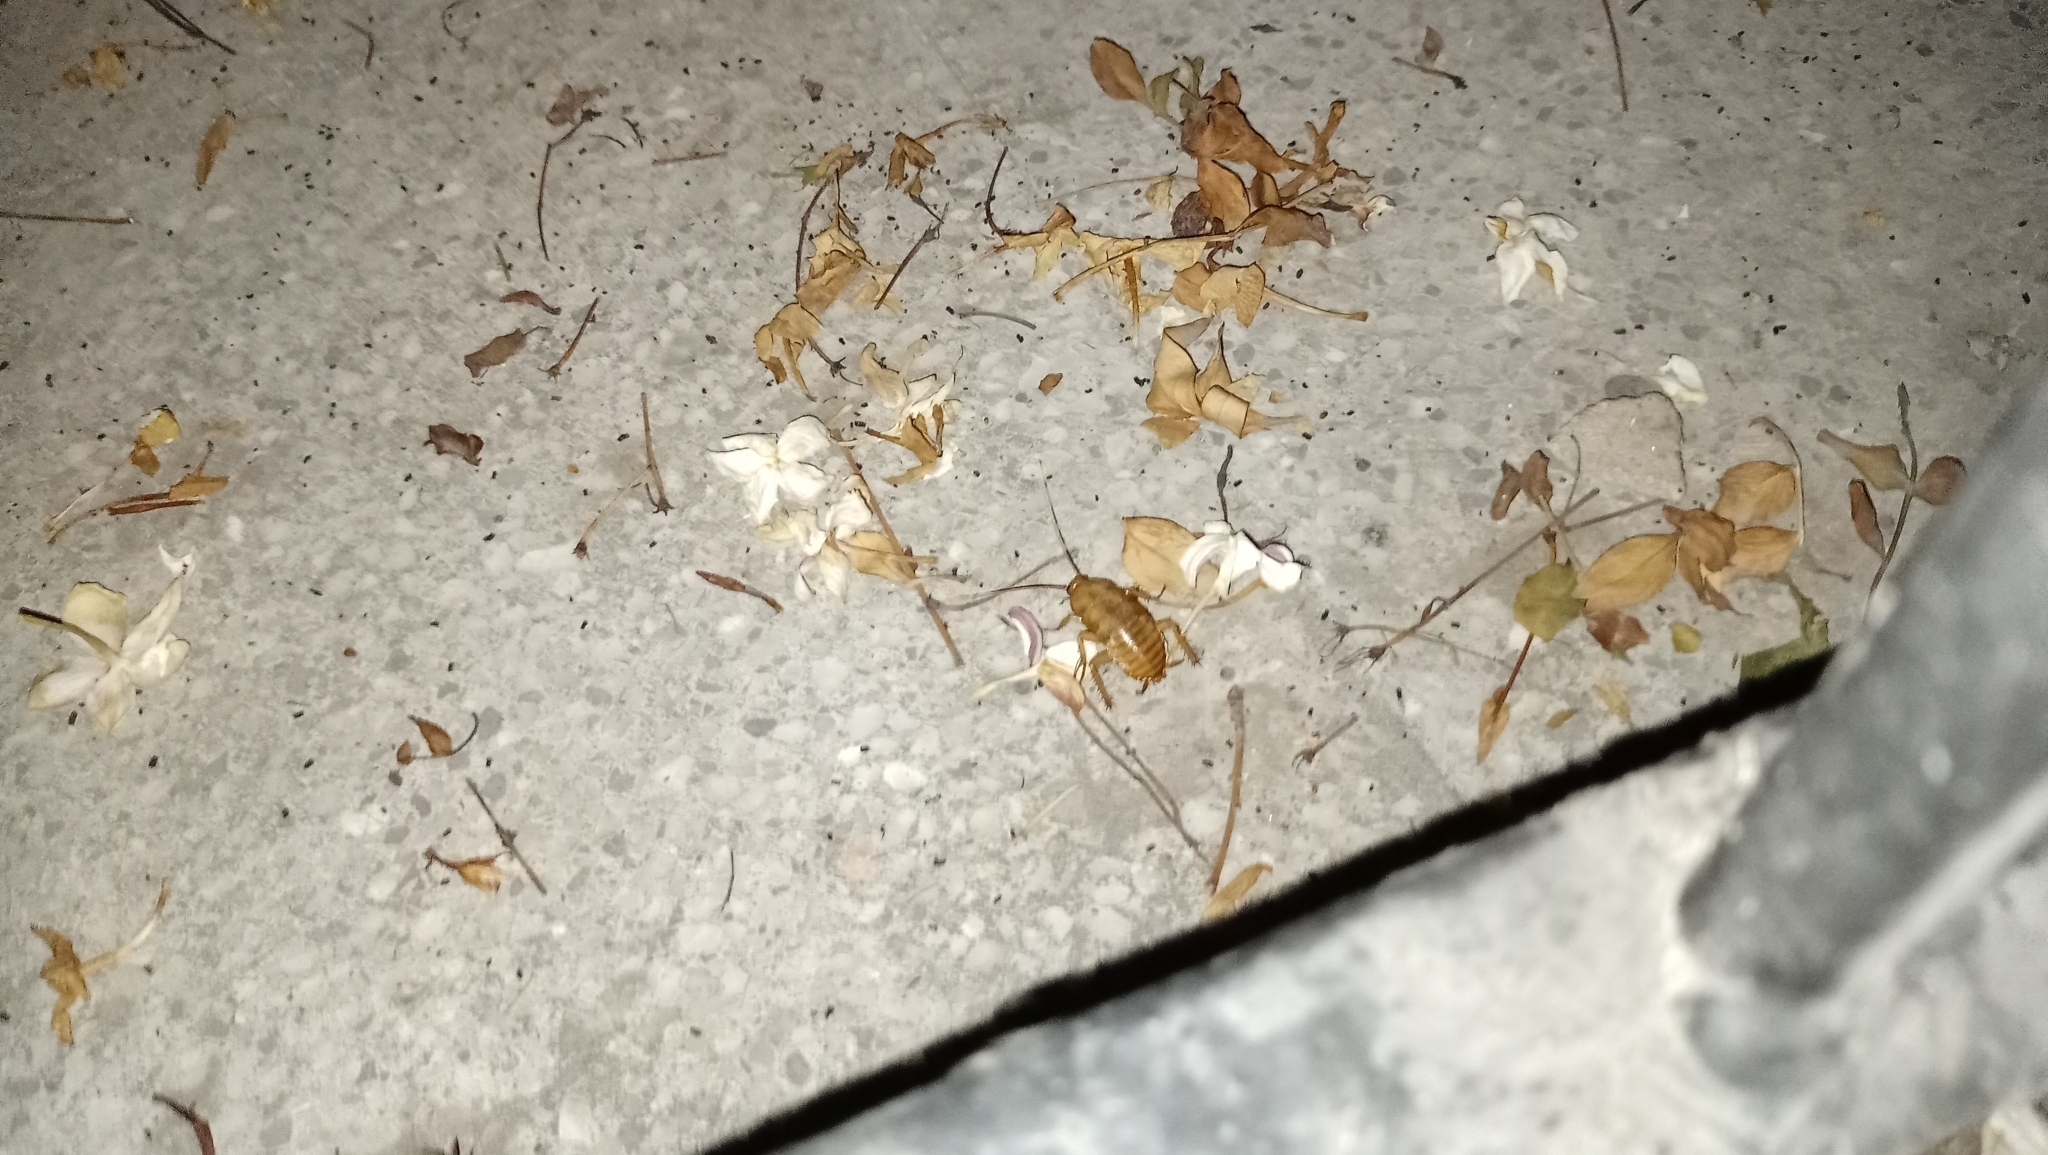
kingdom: Animalia
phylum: Arthropoda
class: Insecta
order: Blattodea
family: Blattidae
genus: Periplaneta
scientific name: Periplaneta americana
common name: American cockroach
